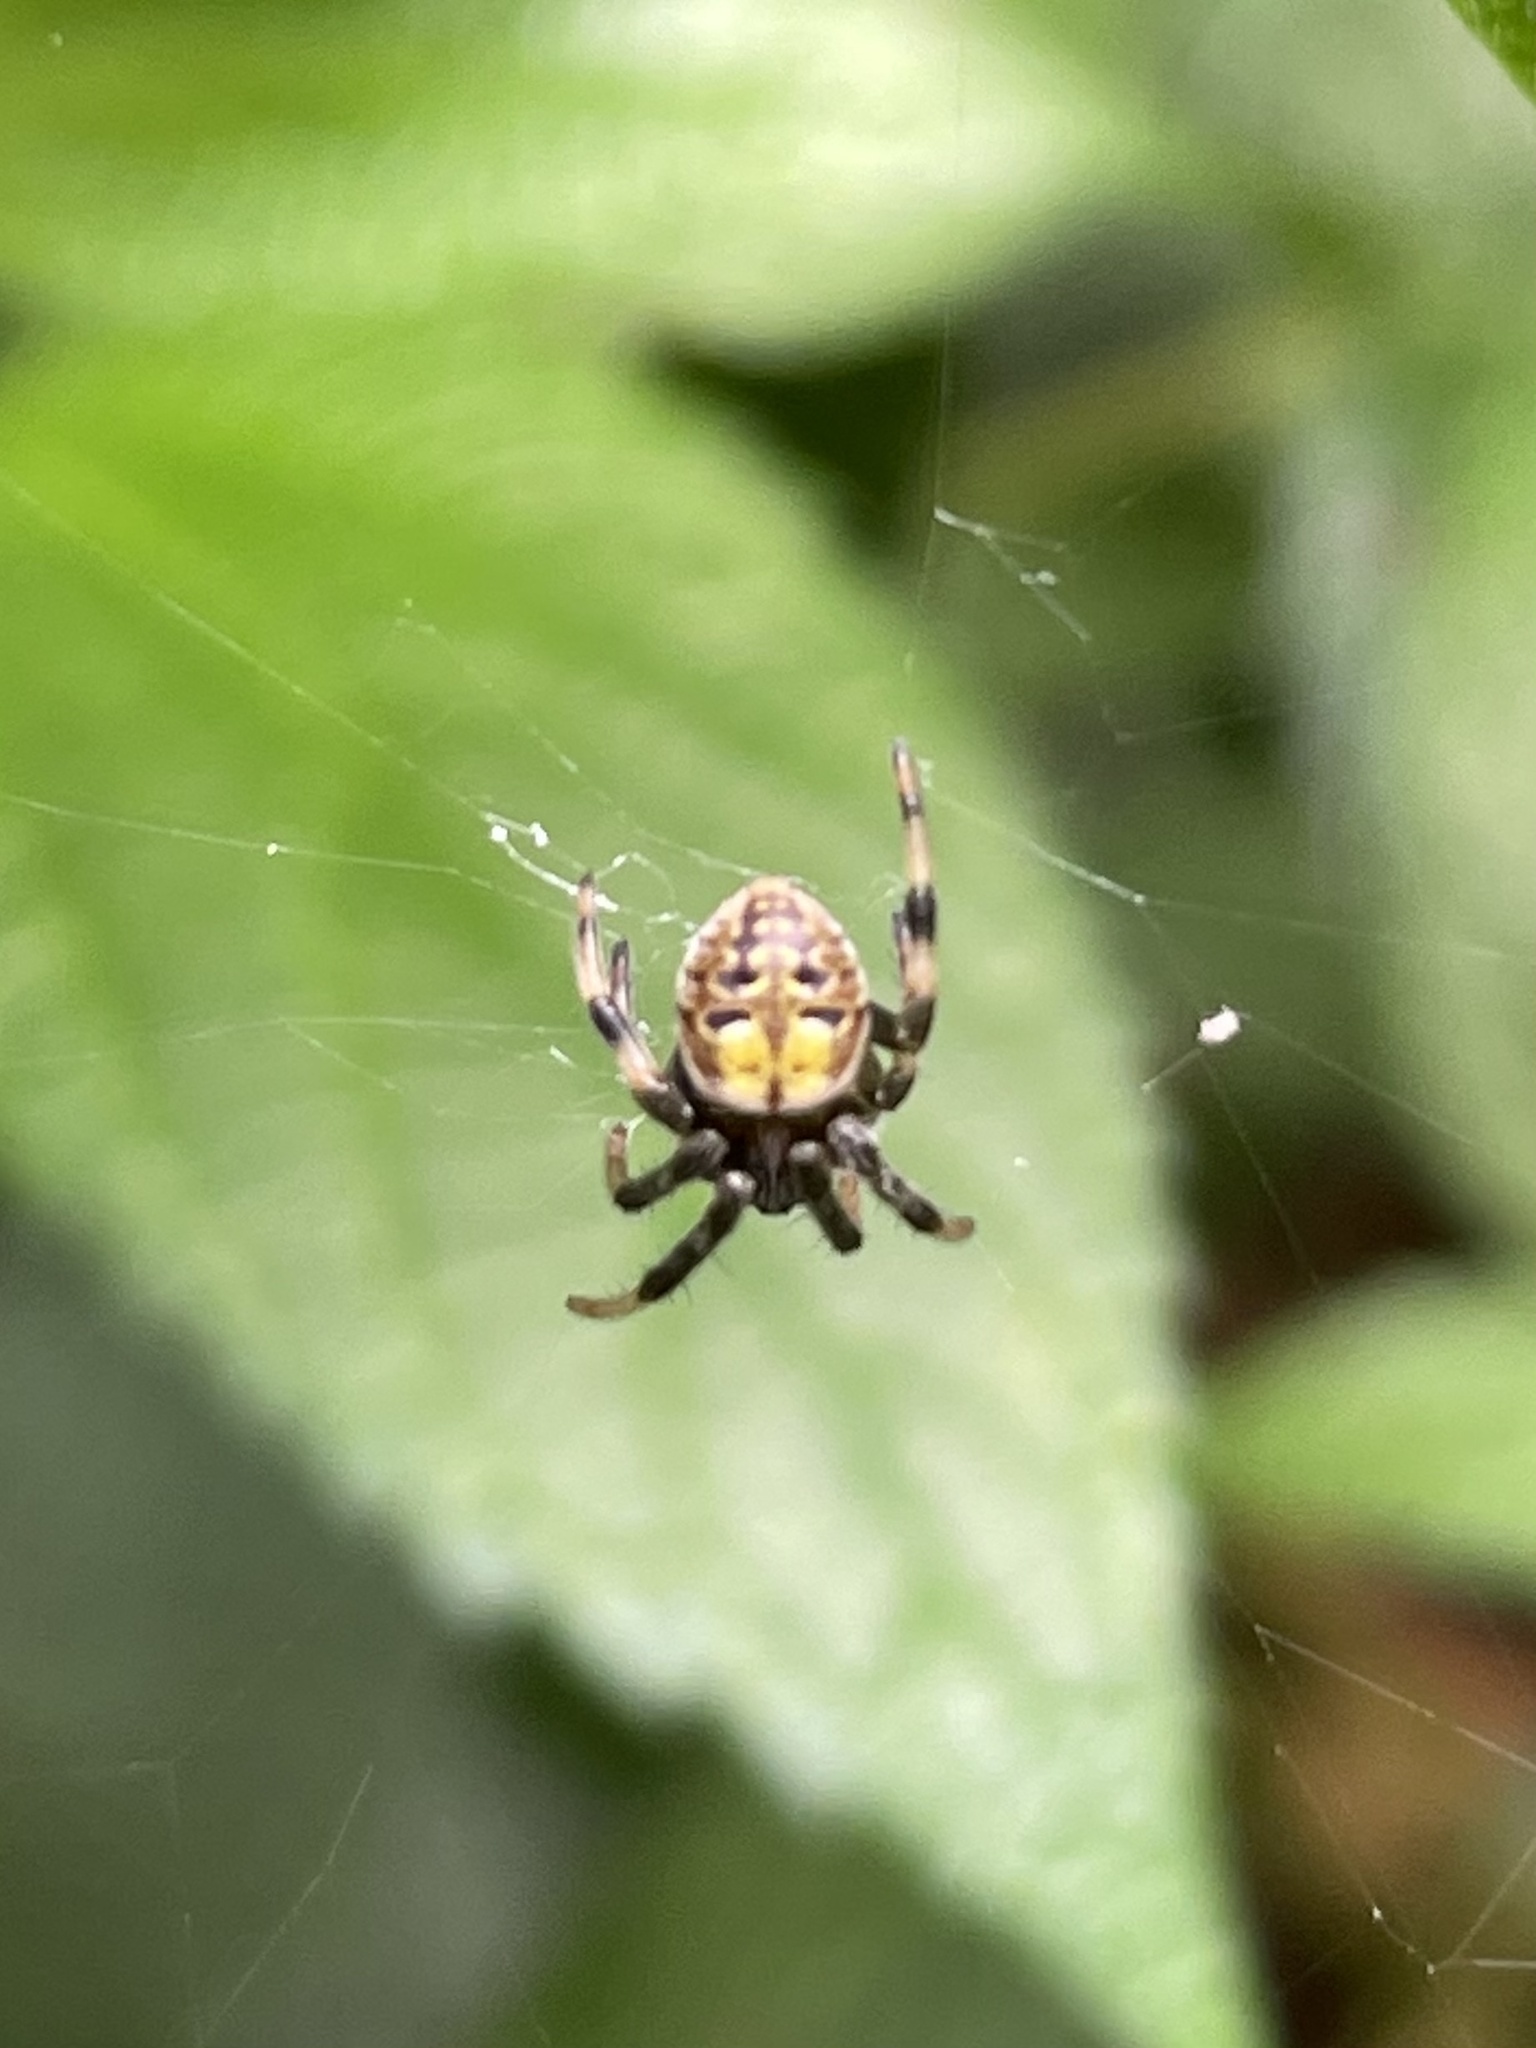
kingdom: Animalia
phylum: Arthropoda
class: Arachnida
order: Araneae
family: Araneidae
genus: Araneus
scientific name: Araneus granadensis
